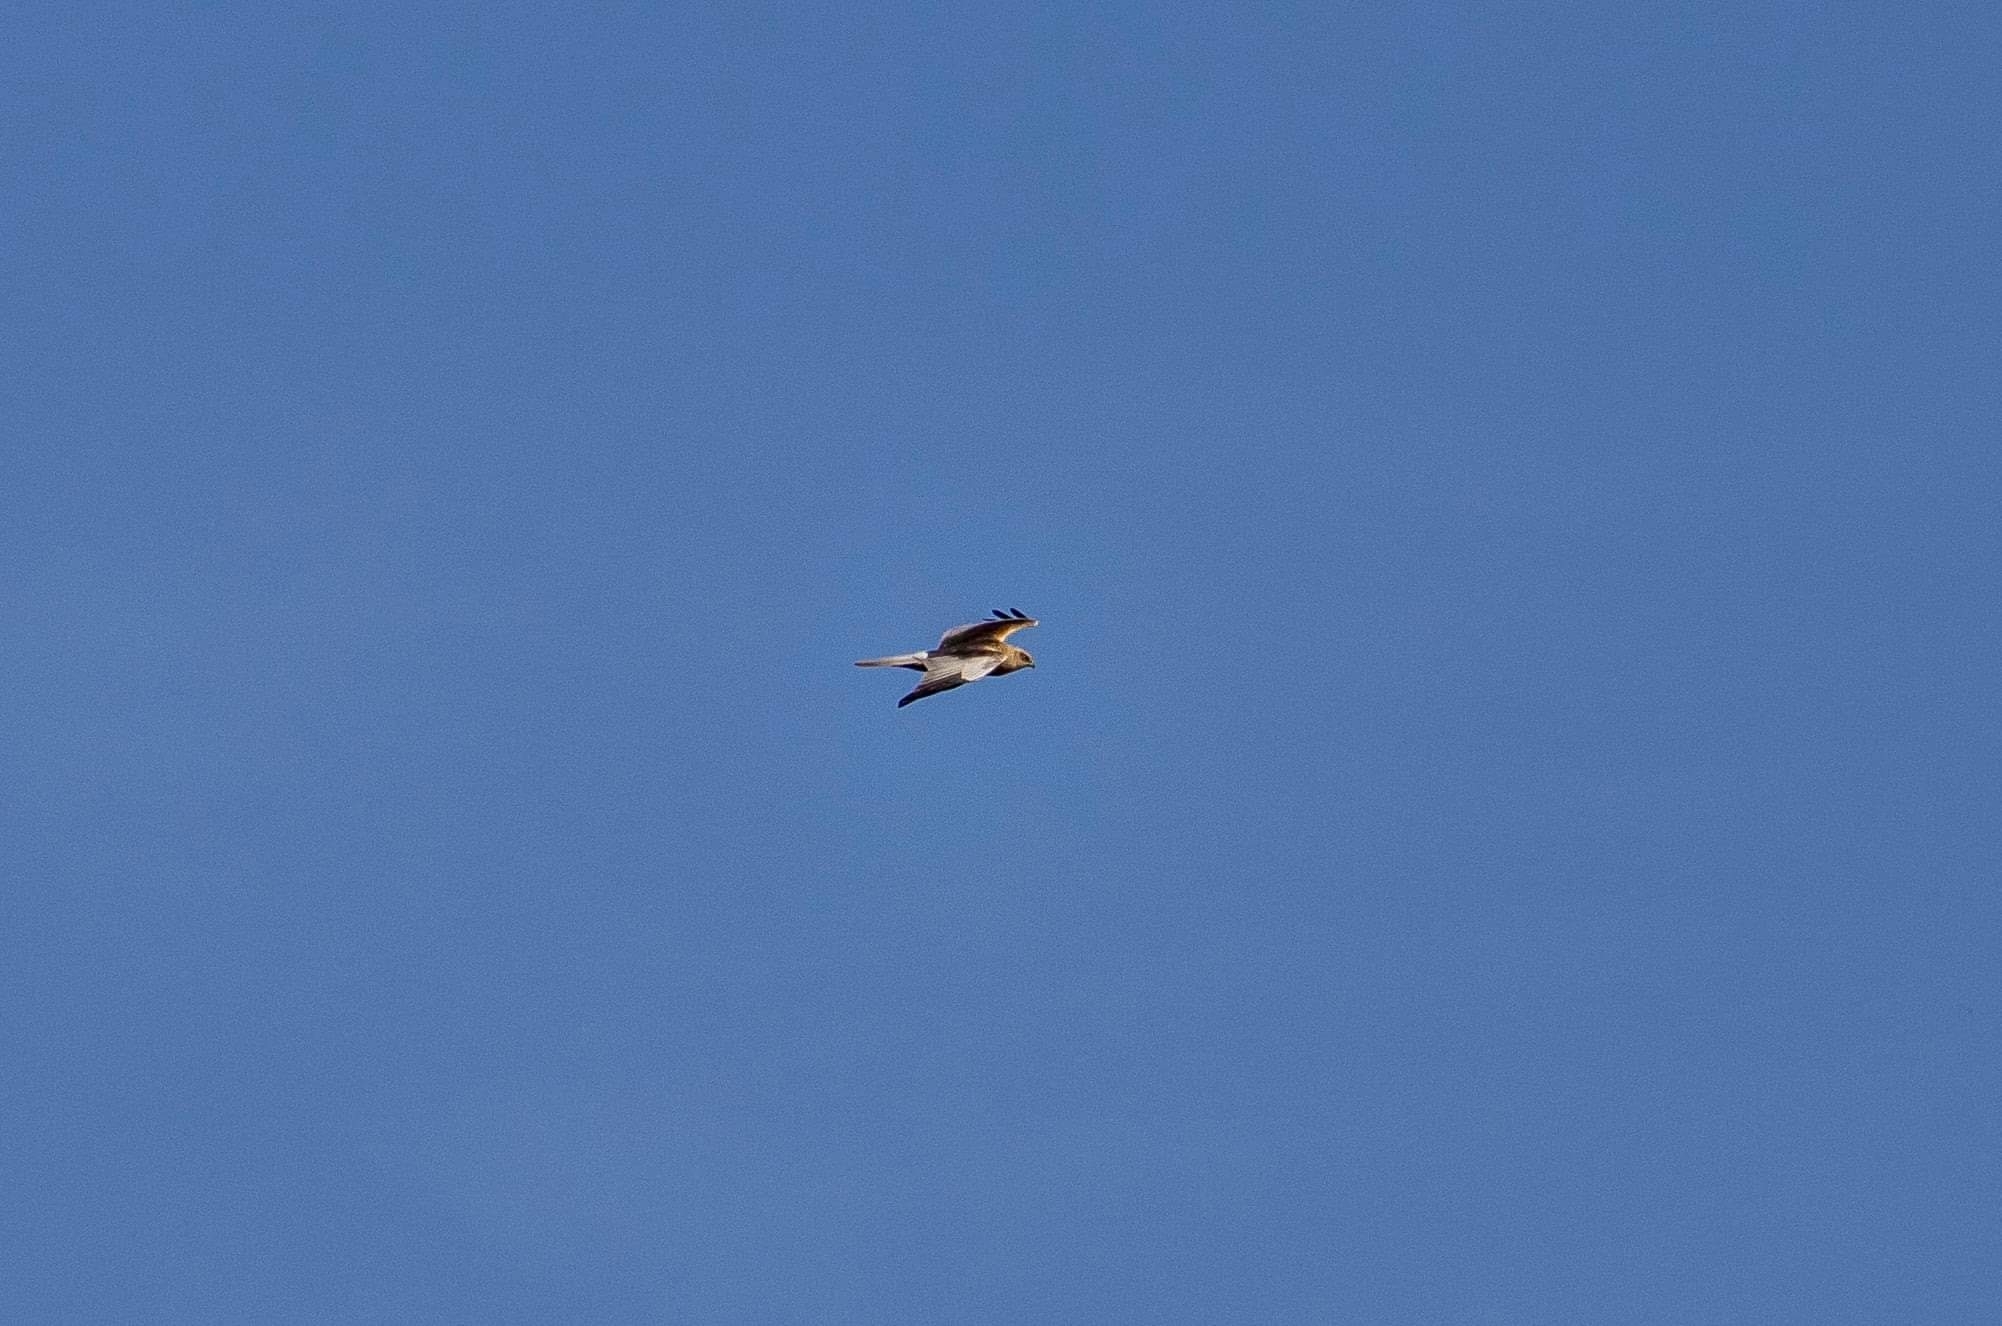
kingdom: Animalia
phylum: Chordata
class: Aves
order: Accipitriformes
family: Accipitridae
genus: Circus
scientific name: Circus aeruginosus
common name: Western marsh harrier
